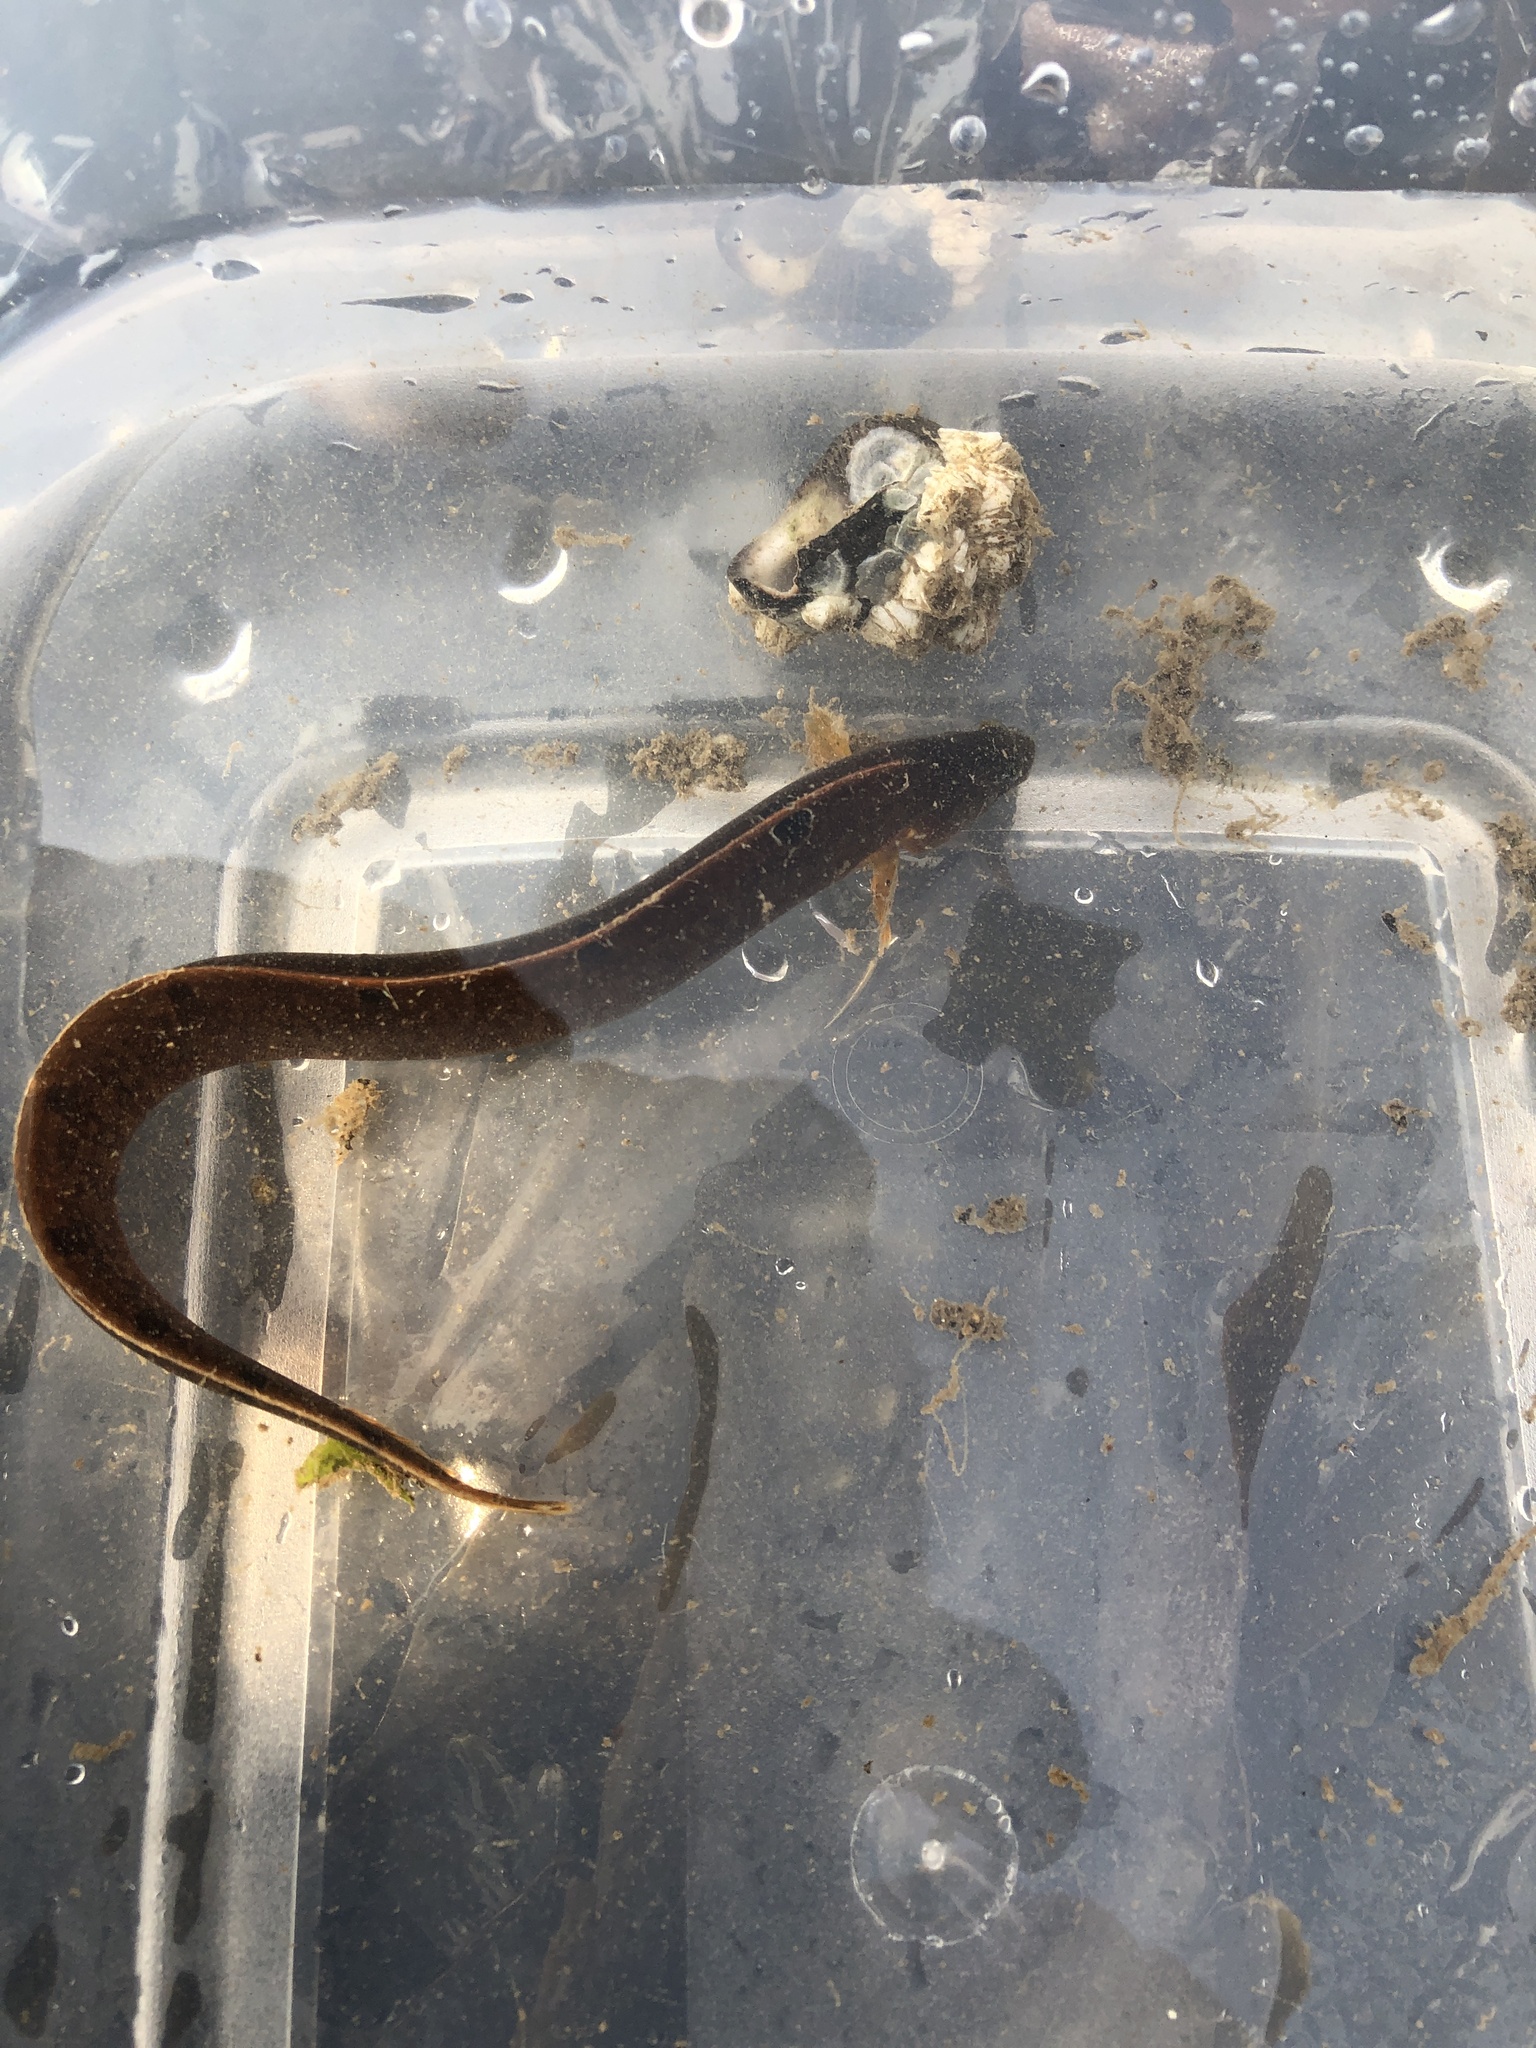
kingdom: Animalia
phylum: Chordata
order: Perciformes
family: Pholidae
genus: Pholis
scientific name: Pholis gunnellus
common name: Butterfish
